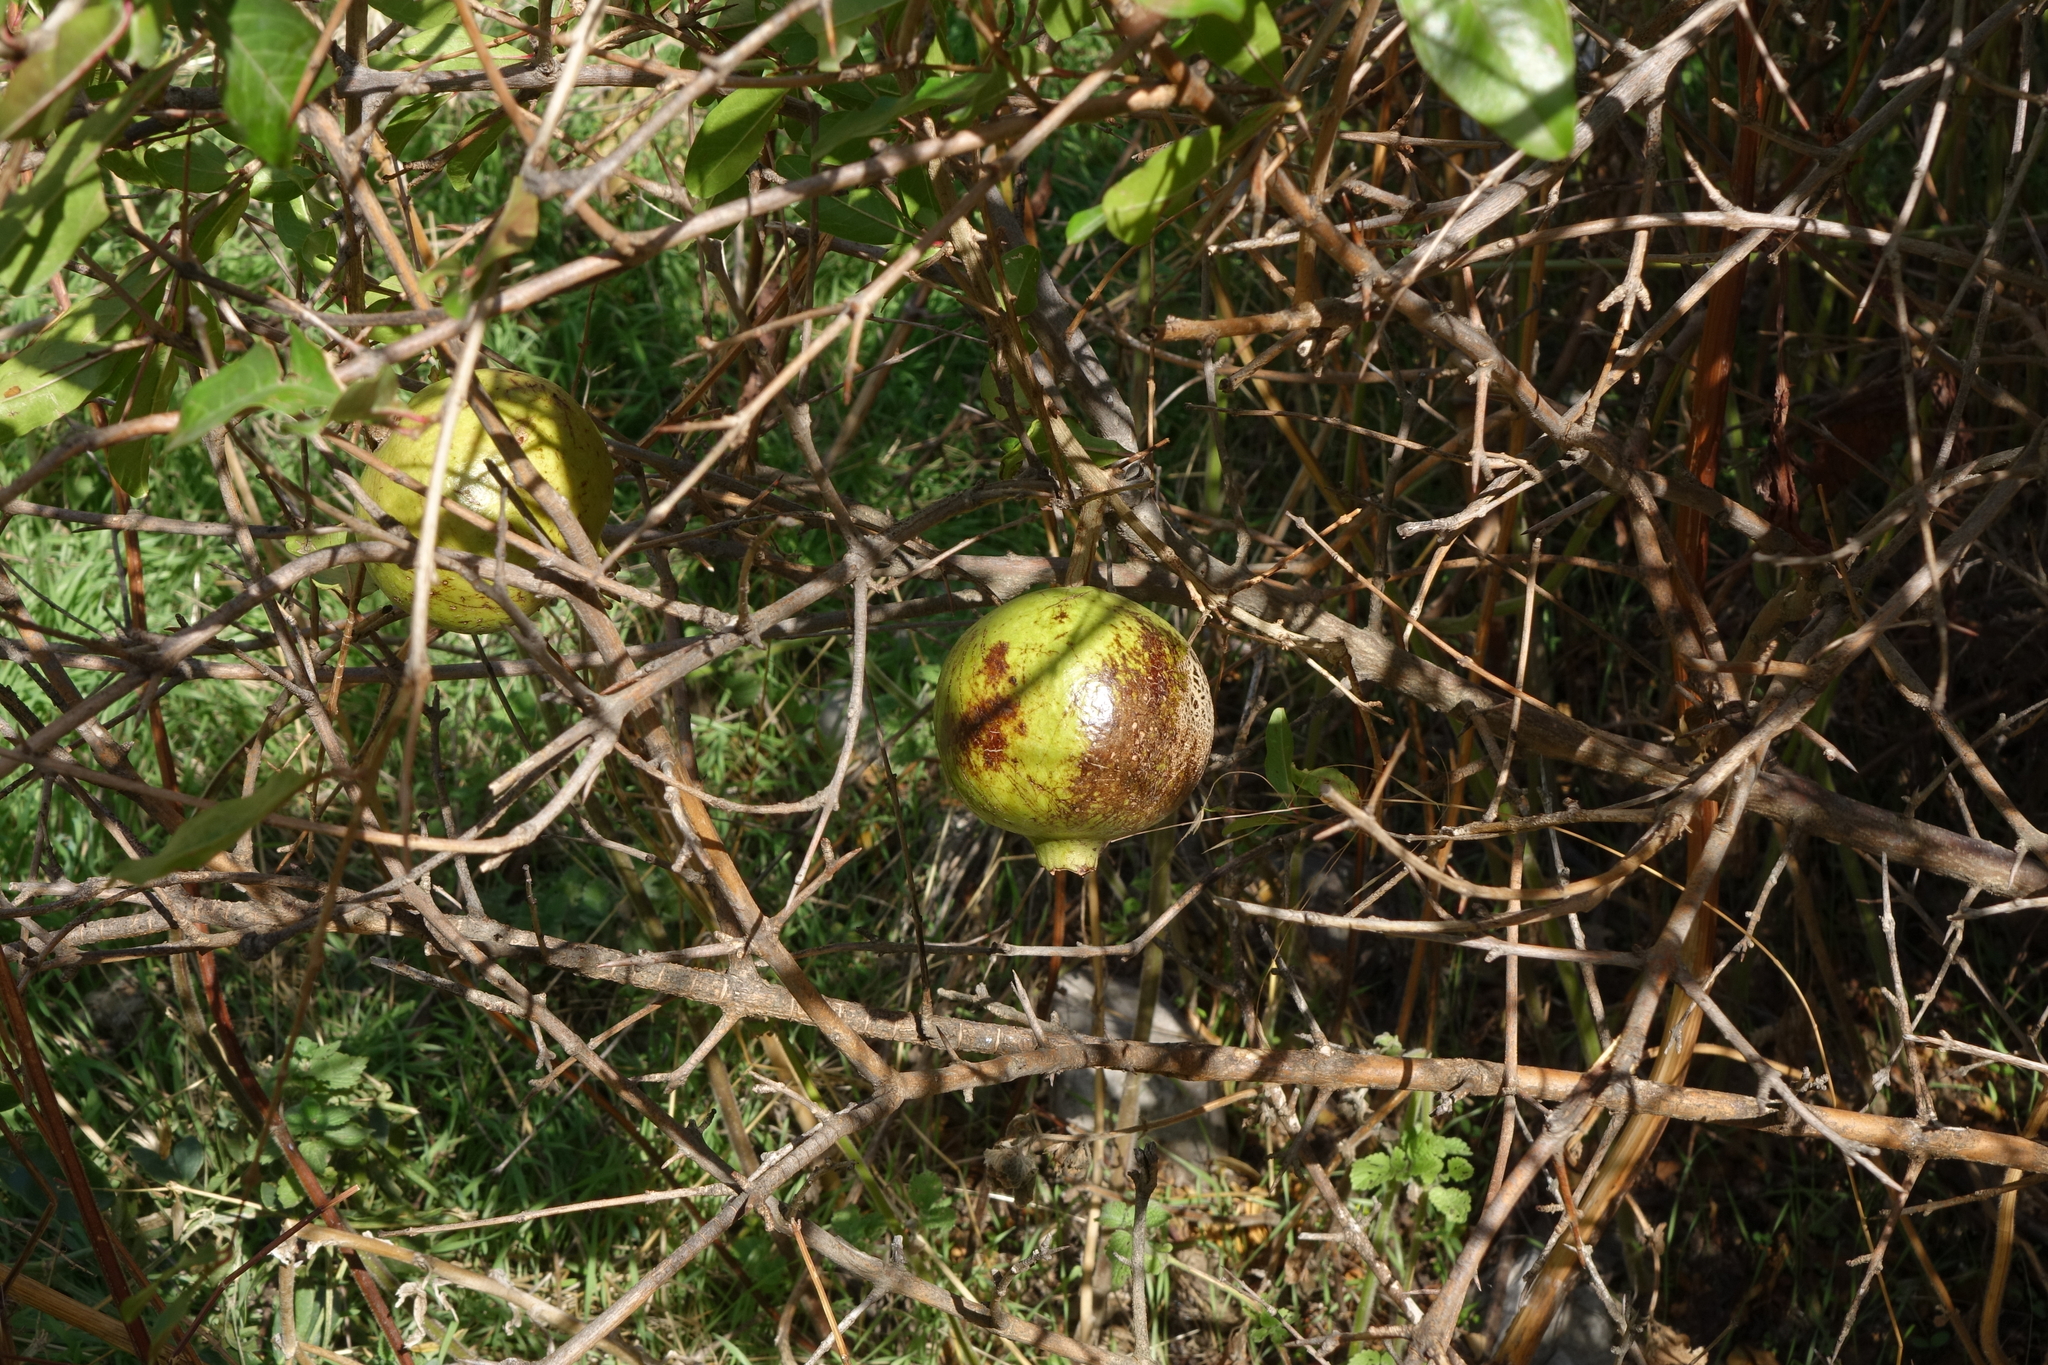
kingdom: Plantae
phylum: Tracheophyta
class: Magnoliopsida
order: Myrtales
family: Lythraceae
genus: Punica
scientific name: Punica granatum
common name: Pomegranate
